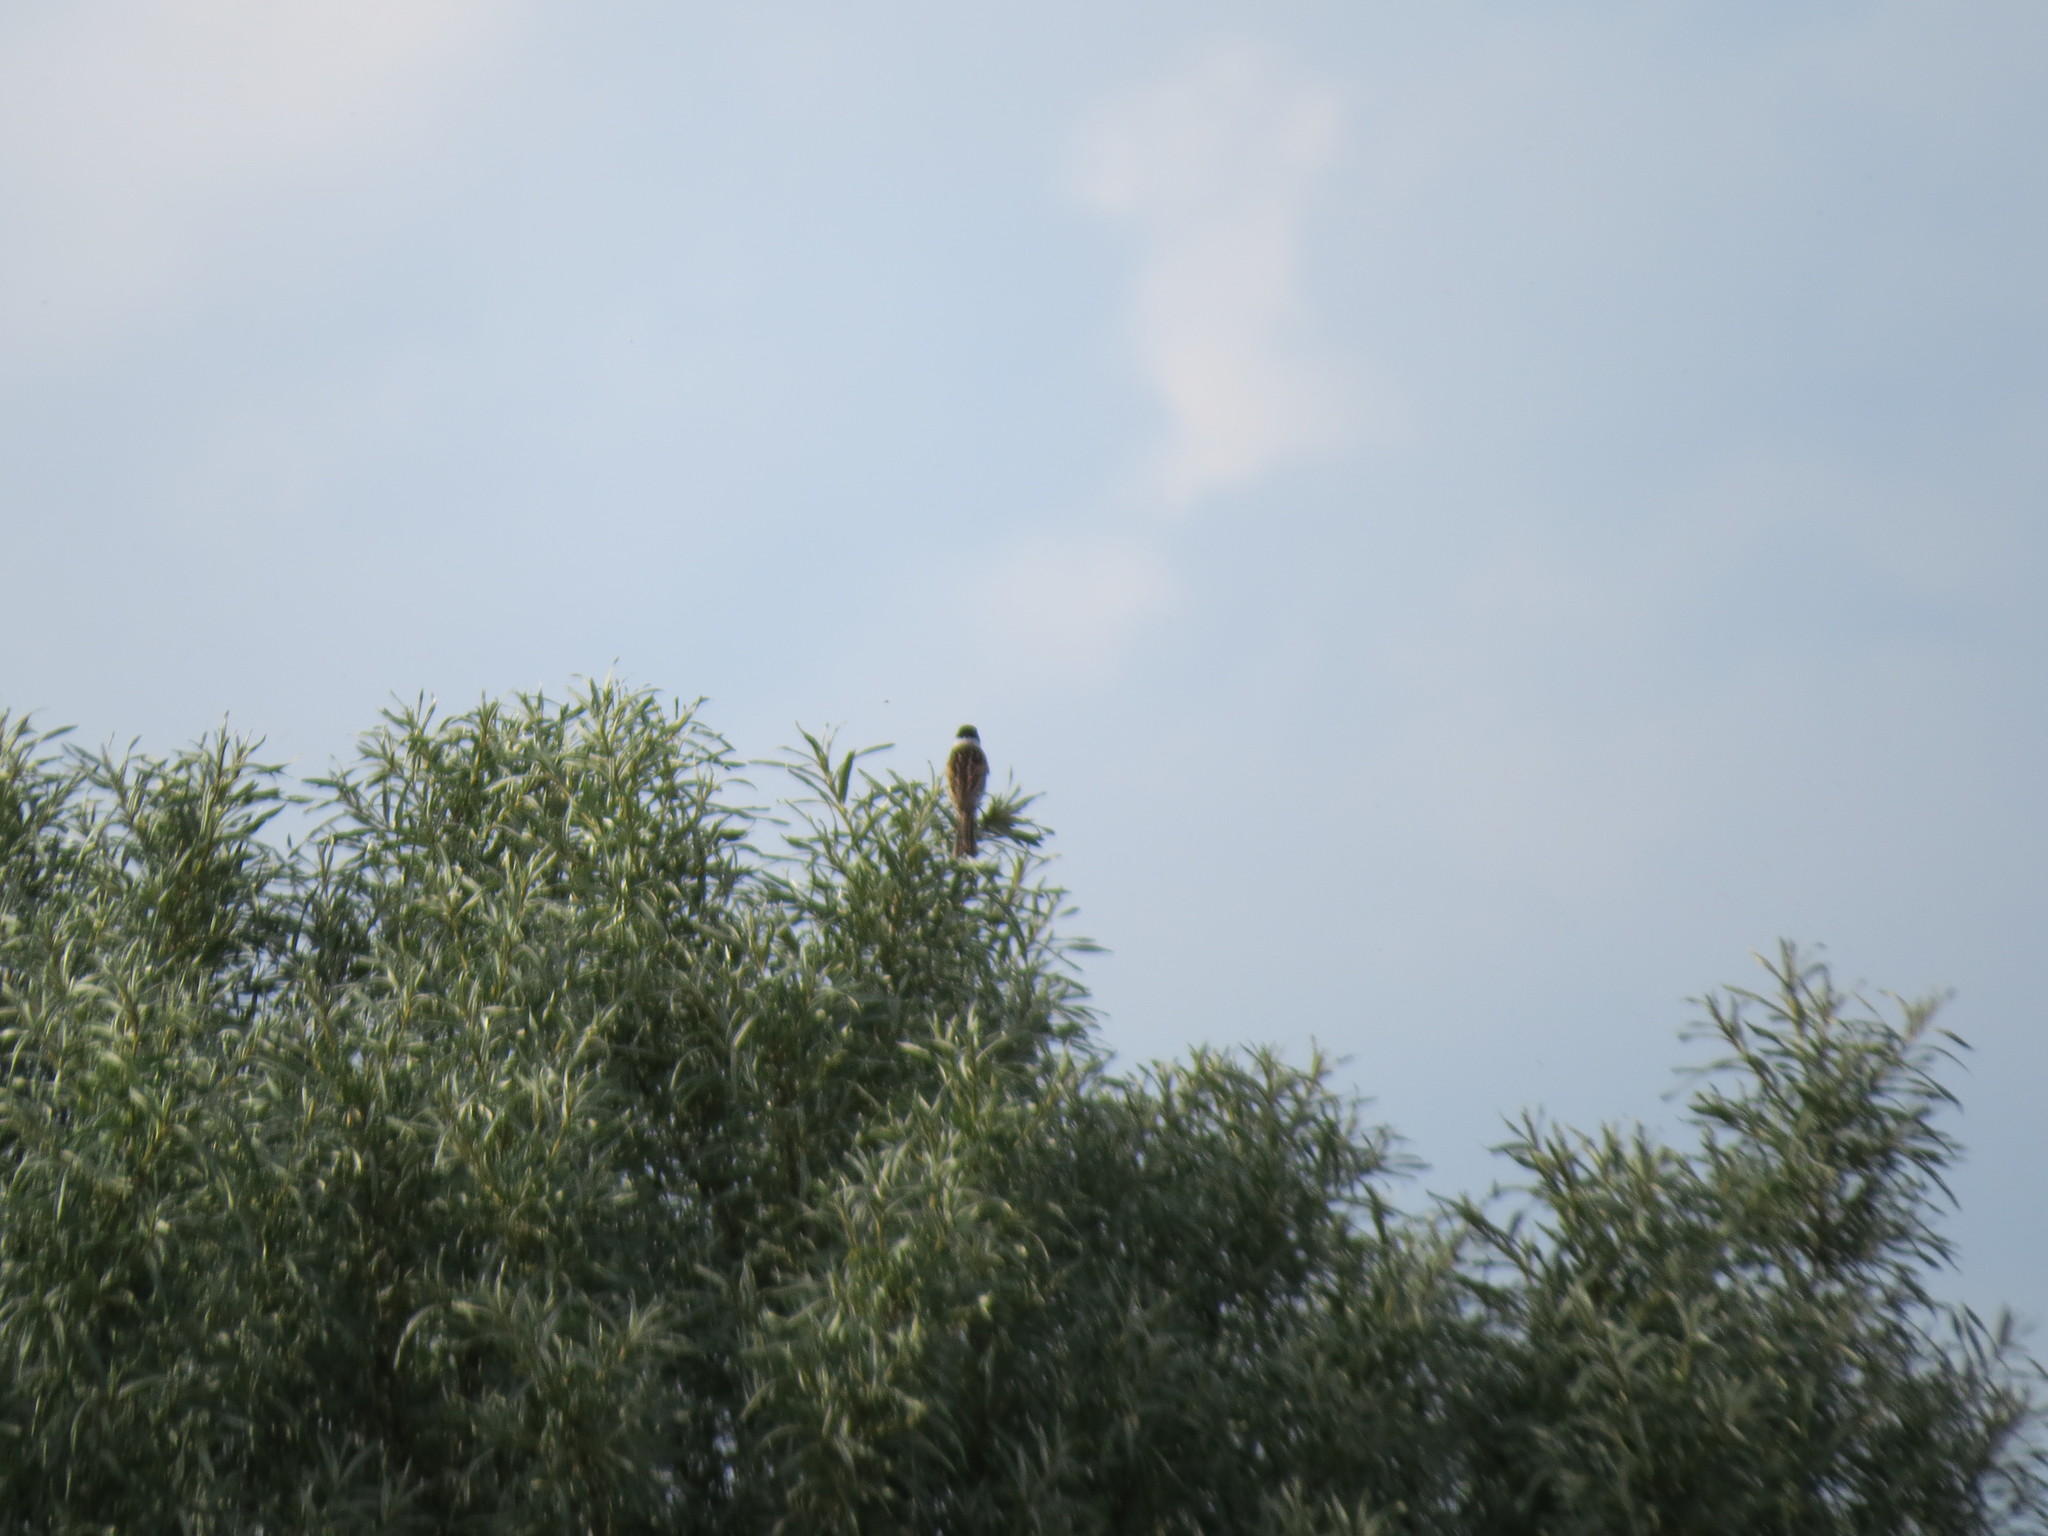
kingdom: Animalia
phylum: Chordata
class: Aves
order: Passeriformes
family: Emberizidae
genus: Emberiza
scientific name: Emberiza schoeniclus
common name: Reed bunting
